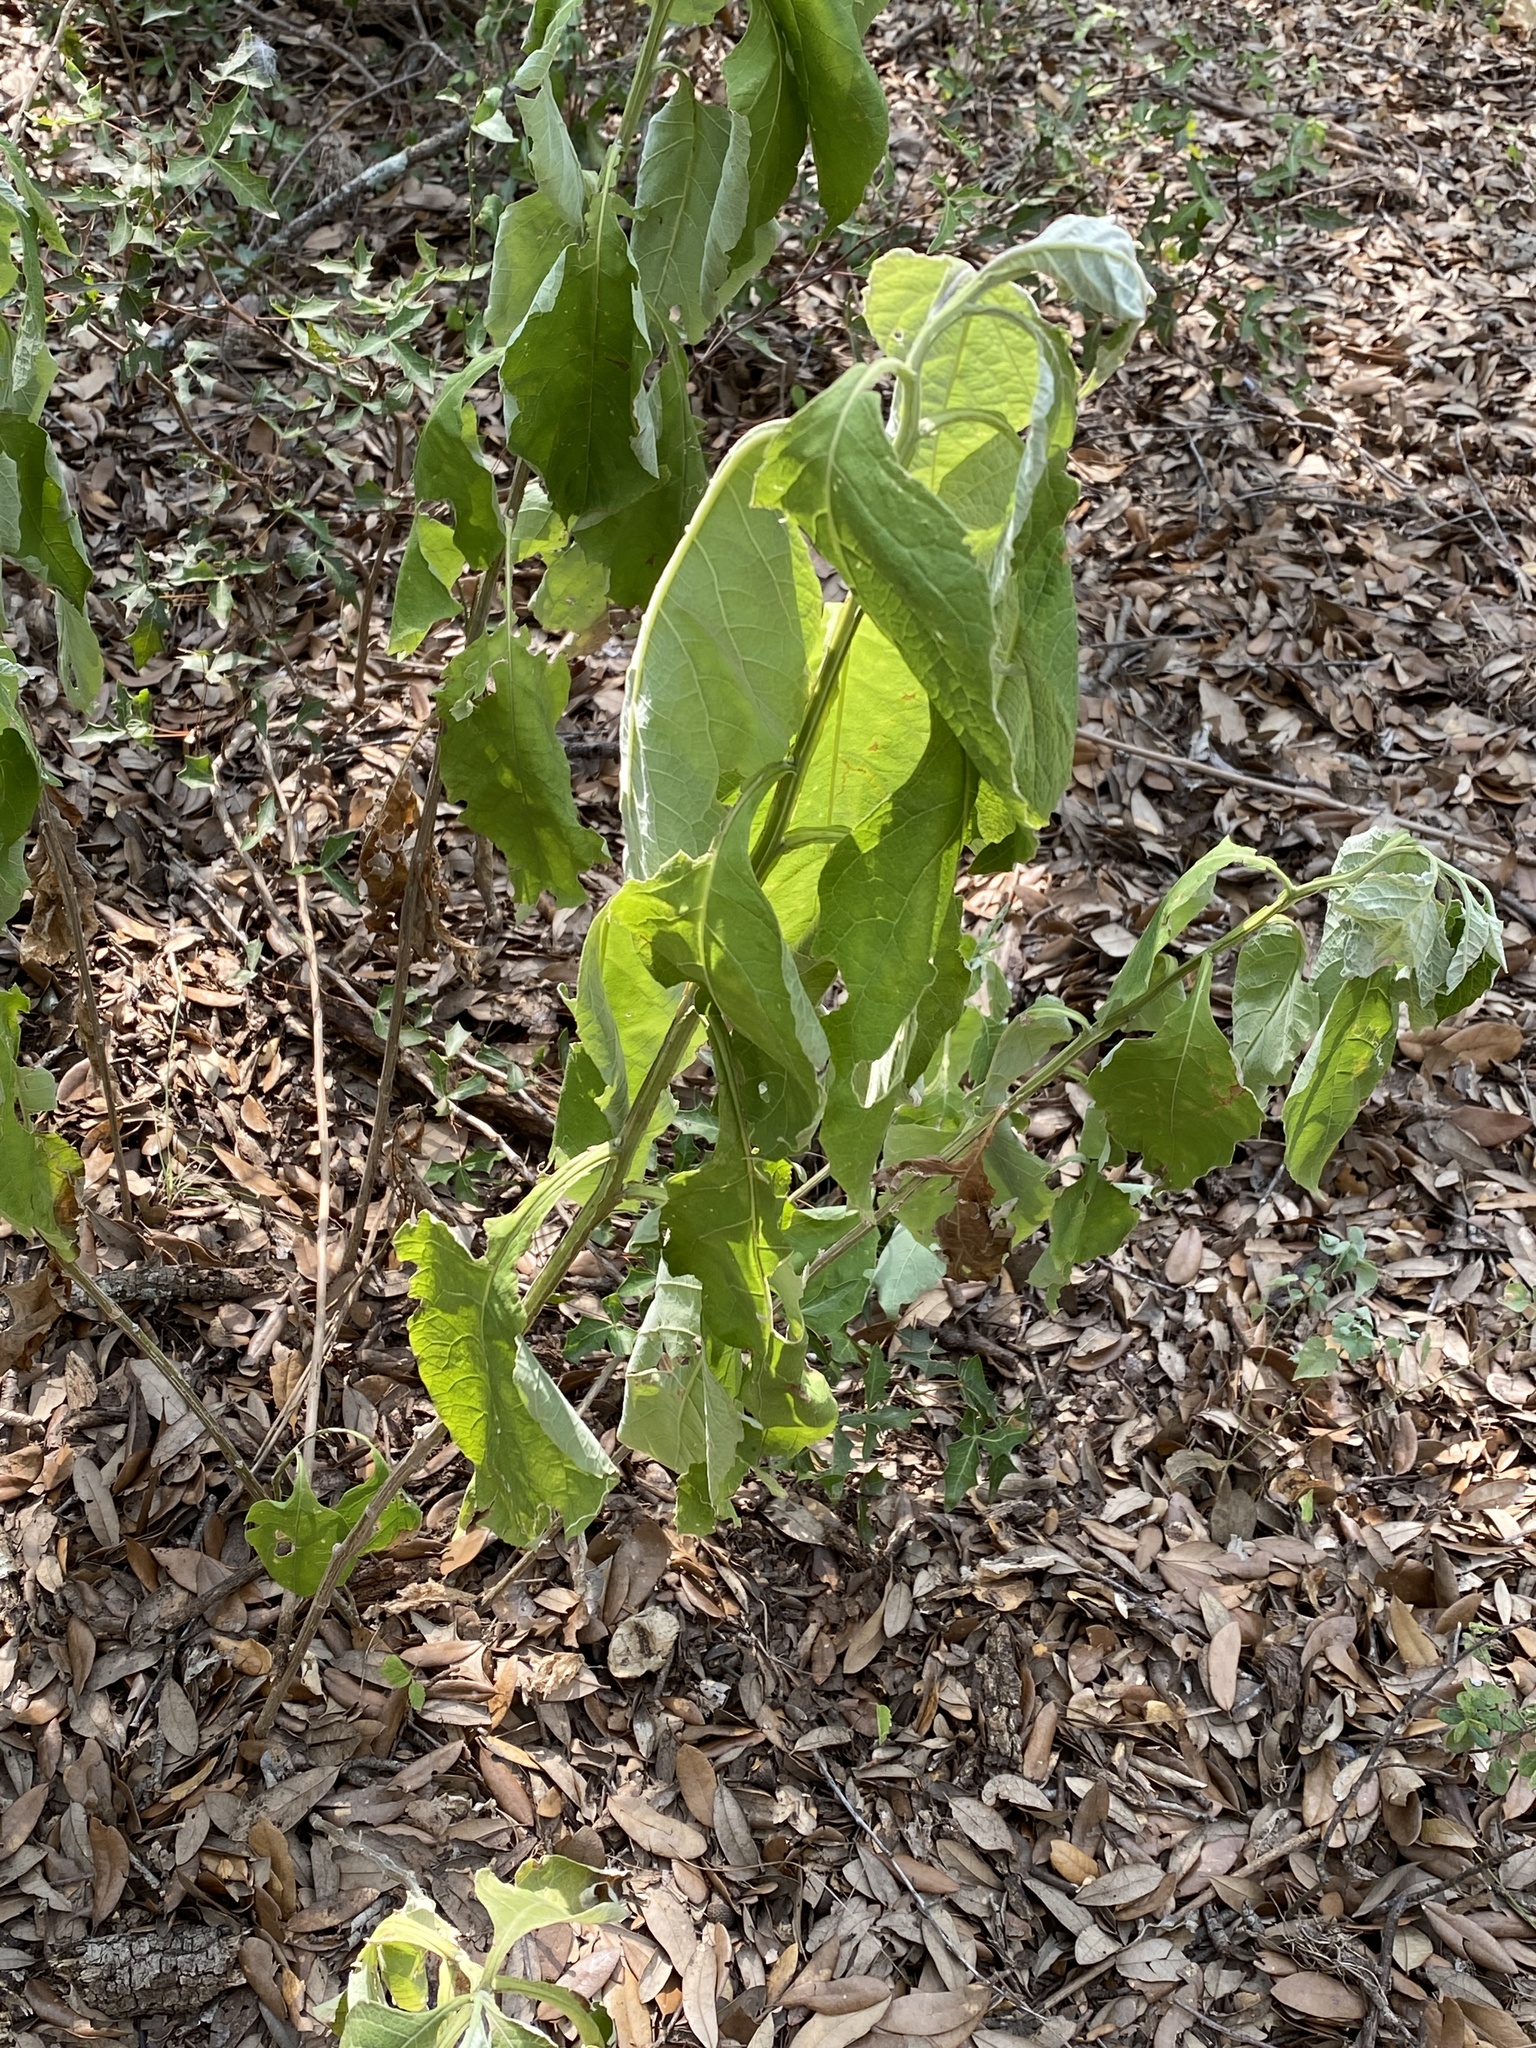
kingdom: Plantae
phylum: Tracheophyta
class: Magnoliopsida
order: Malvales
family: Malvaceae
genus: Allowissadula
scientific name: Allowissadula holosericea
